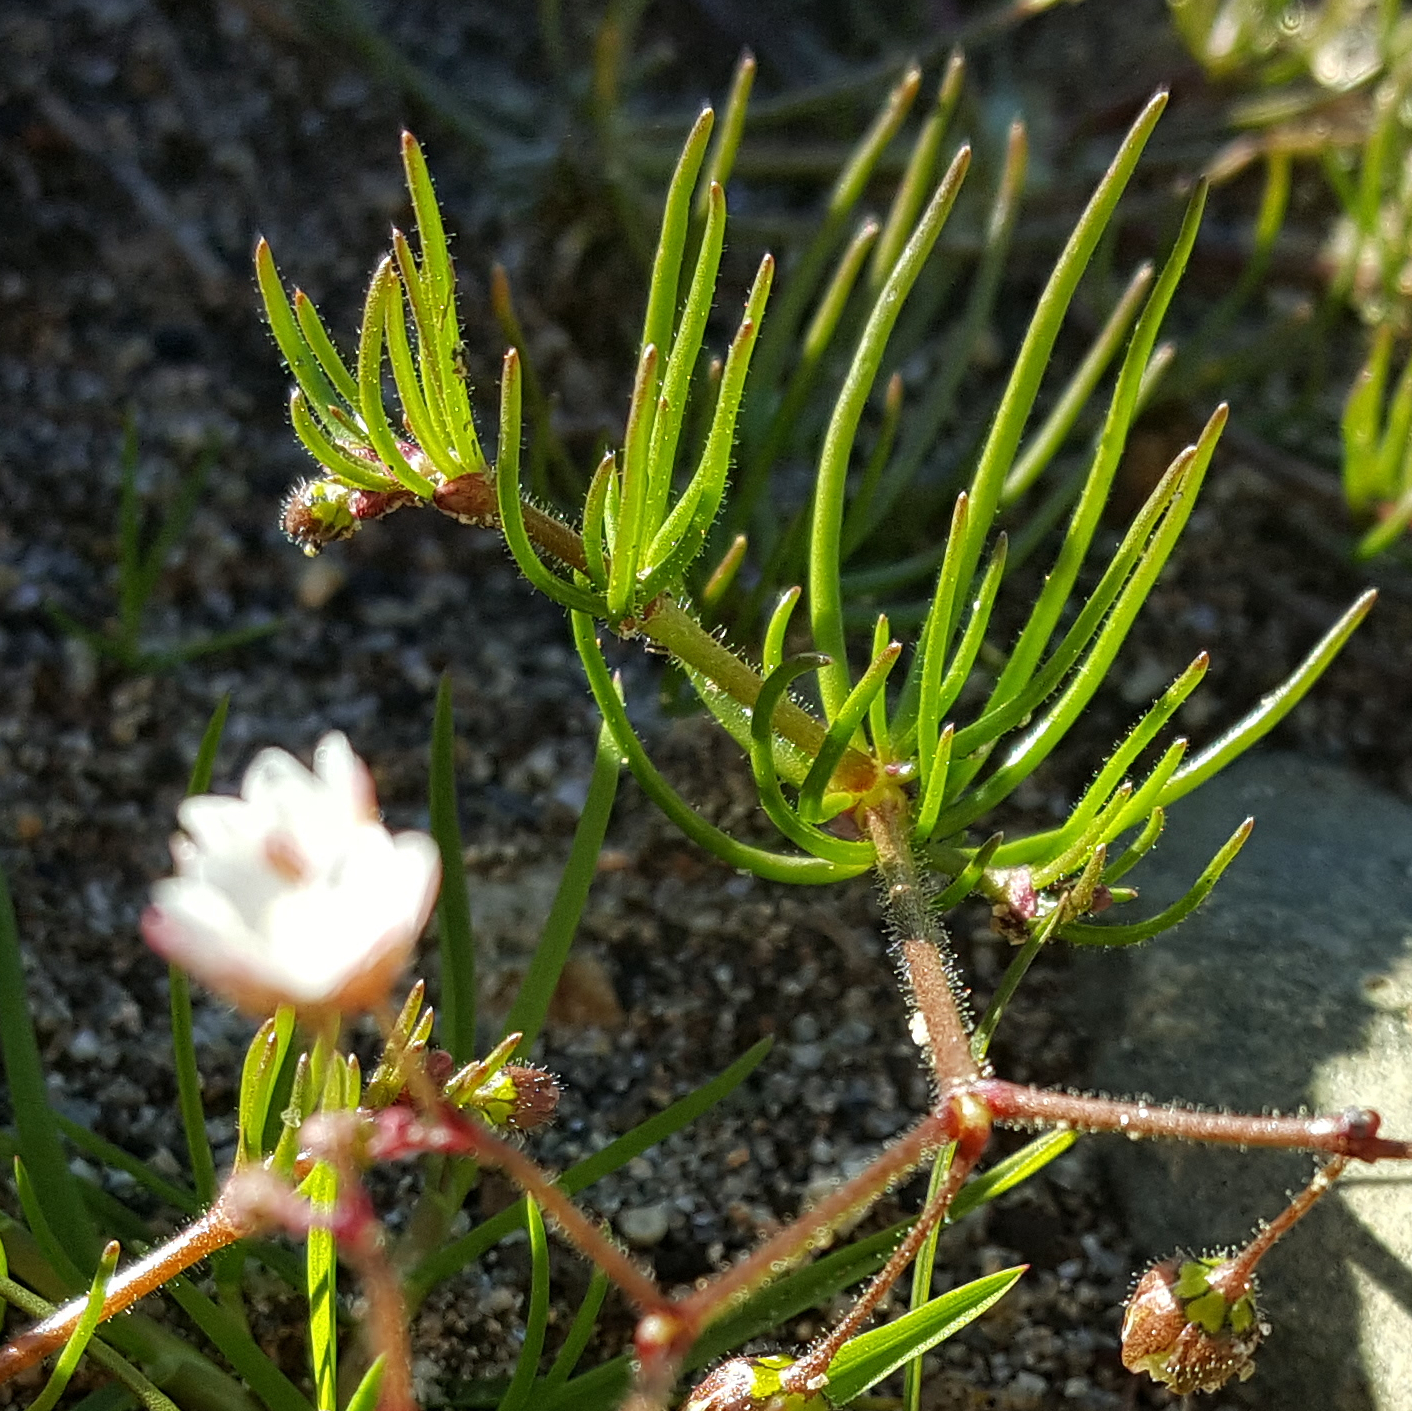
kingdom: Plantae
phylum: Tracheophyta
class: Magnoliopsida
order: Caryophyllales
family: Caryophyllaceae
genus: Spergula
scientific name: Spergula arvensis
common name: Corn spurrey
